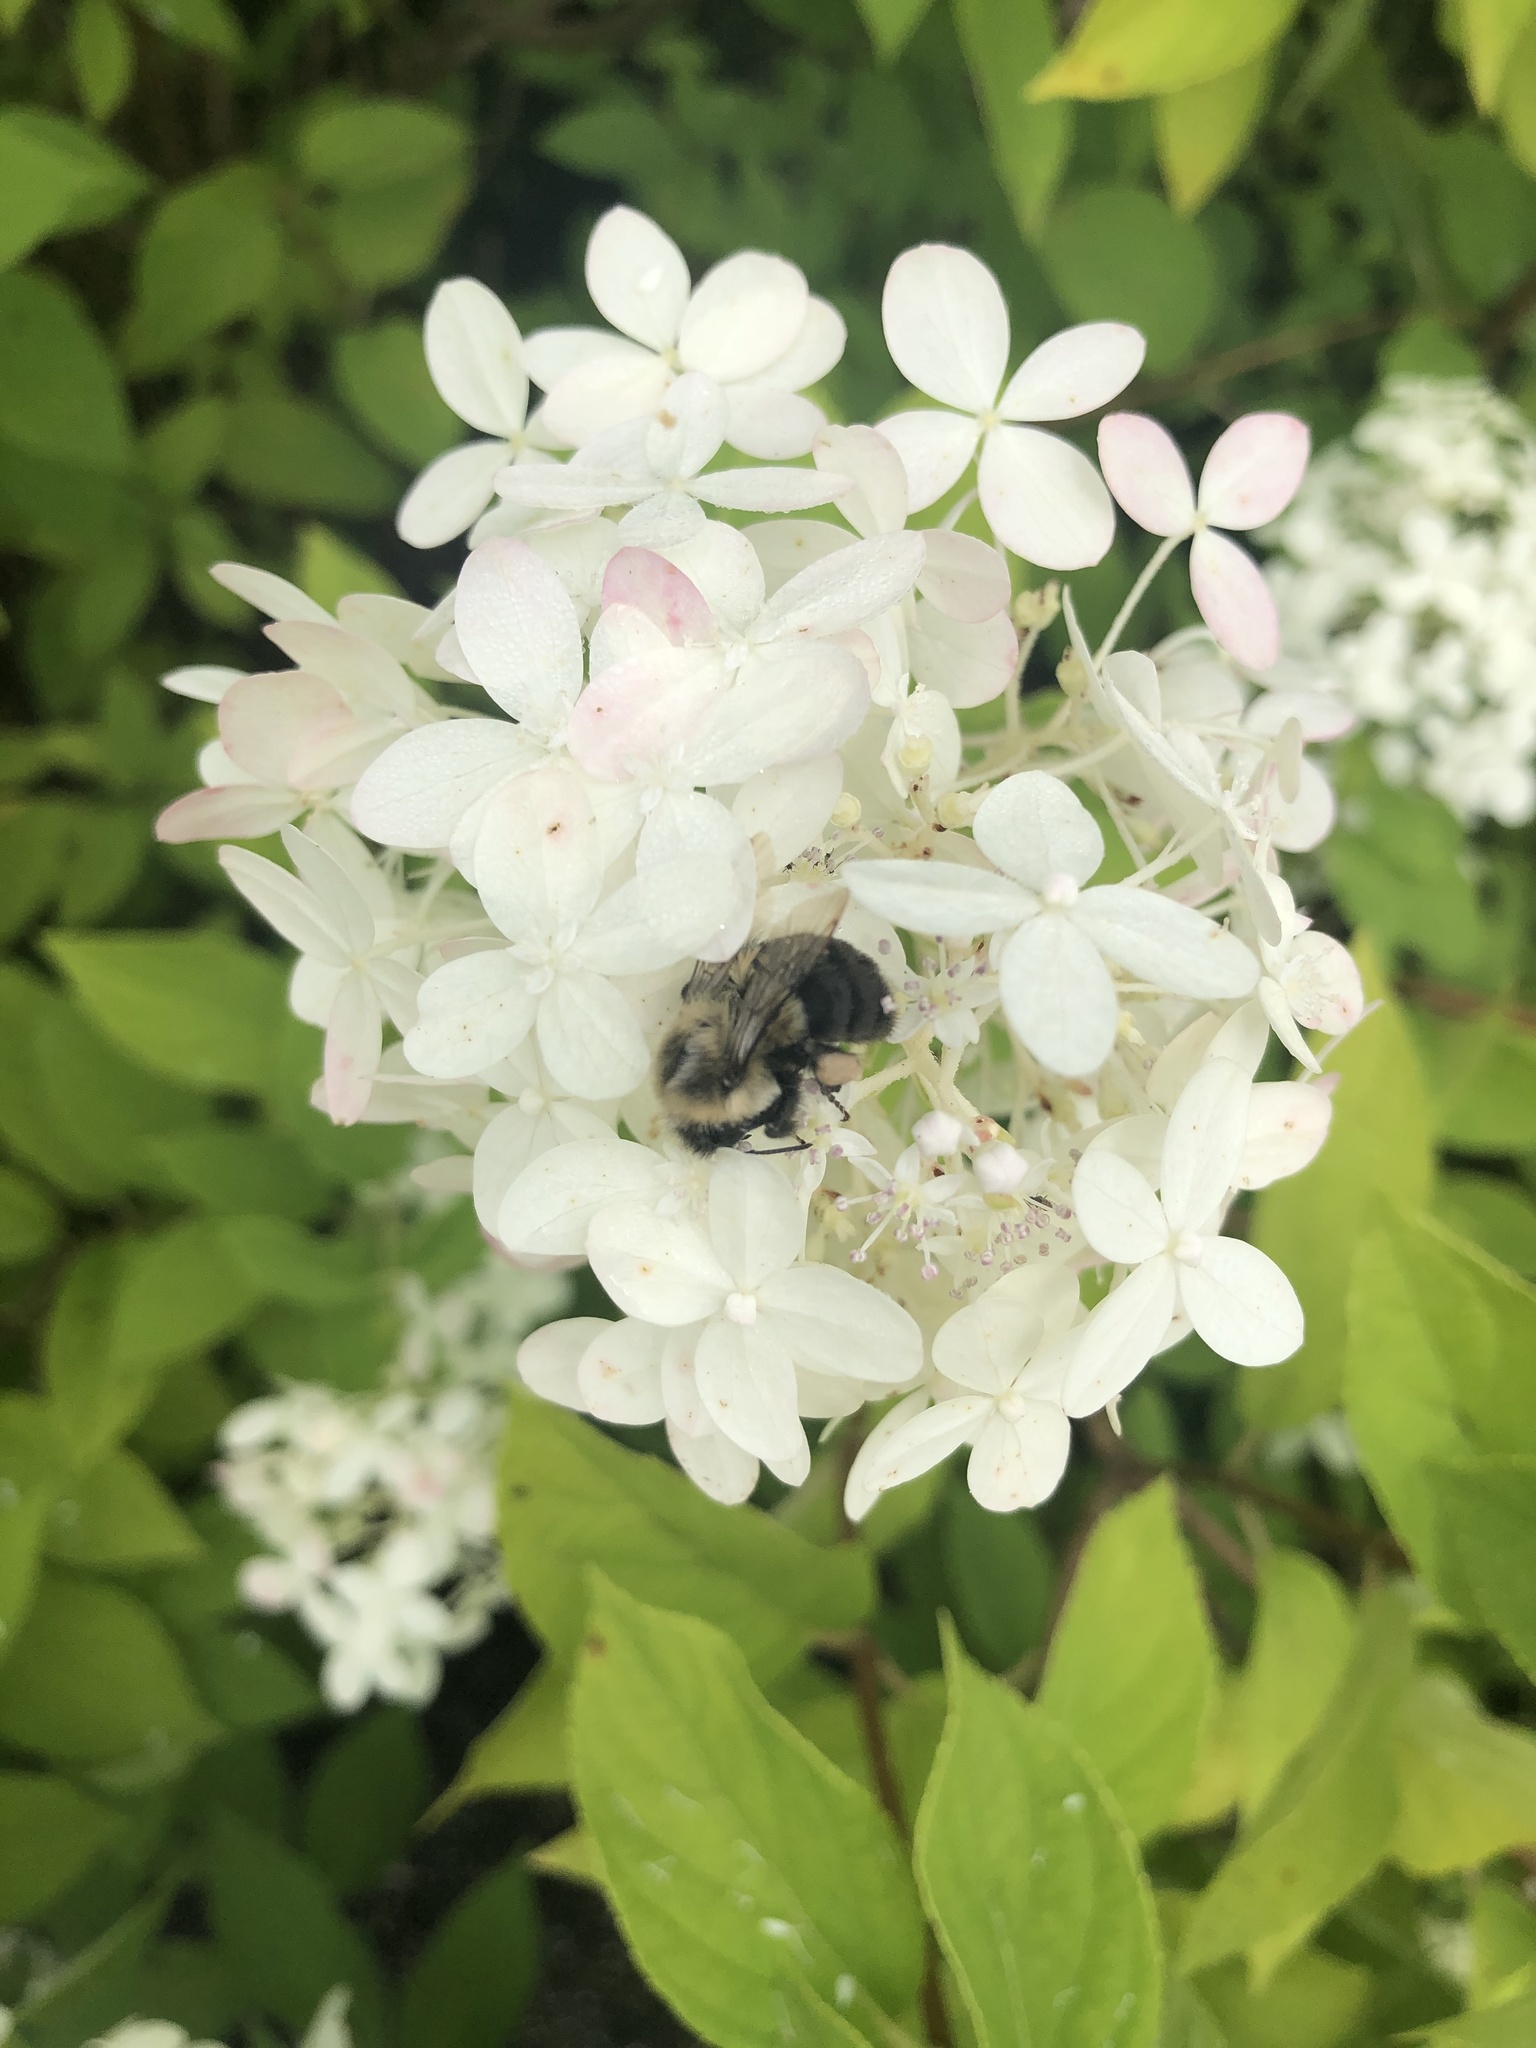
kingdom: Animalia
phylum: Arthropoda
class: Insecta
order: Hymenoptera
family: Apidae
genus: Bombus
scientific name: Bombus impatiens
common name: Common eastern bumble bee
